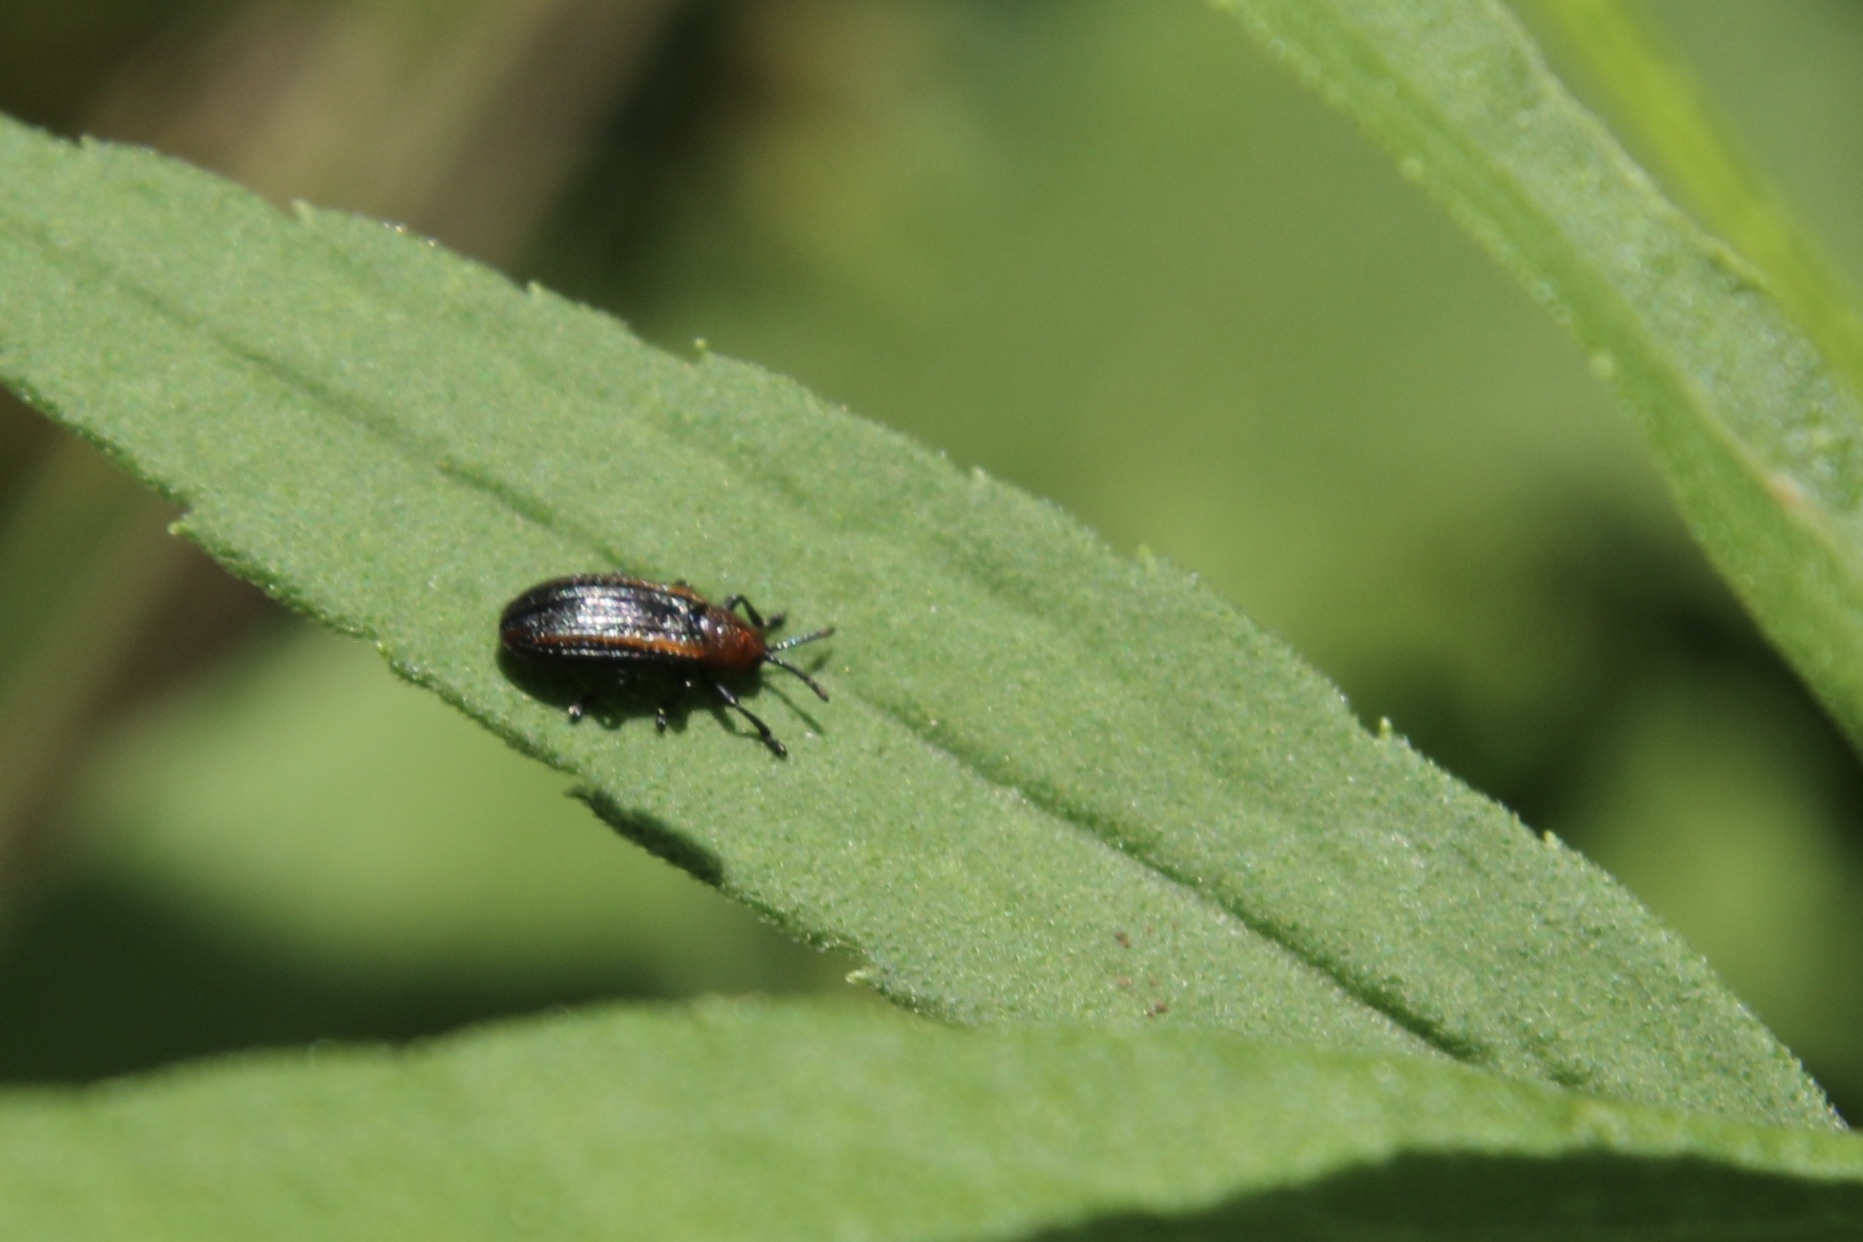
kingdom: Animalia
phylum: Arthropoda
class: Insecta
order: Coleoptera
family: Chrysomelidae
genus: Microrhopala
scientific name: Microrhopala vittata
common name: Goldenrod leaf miner beetle
